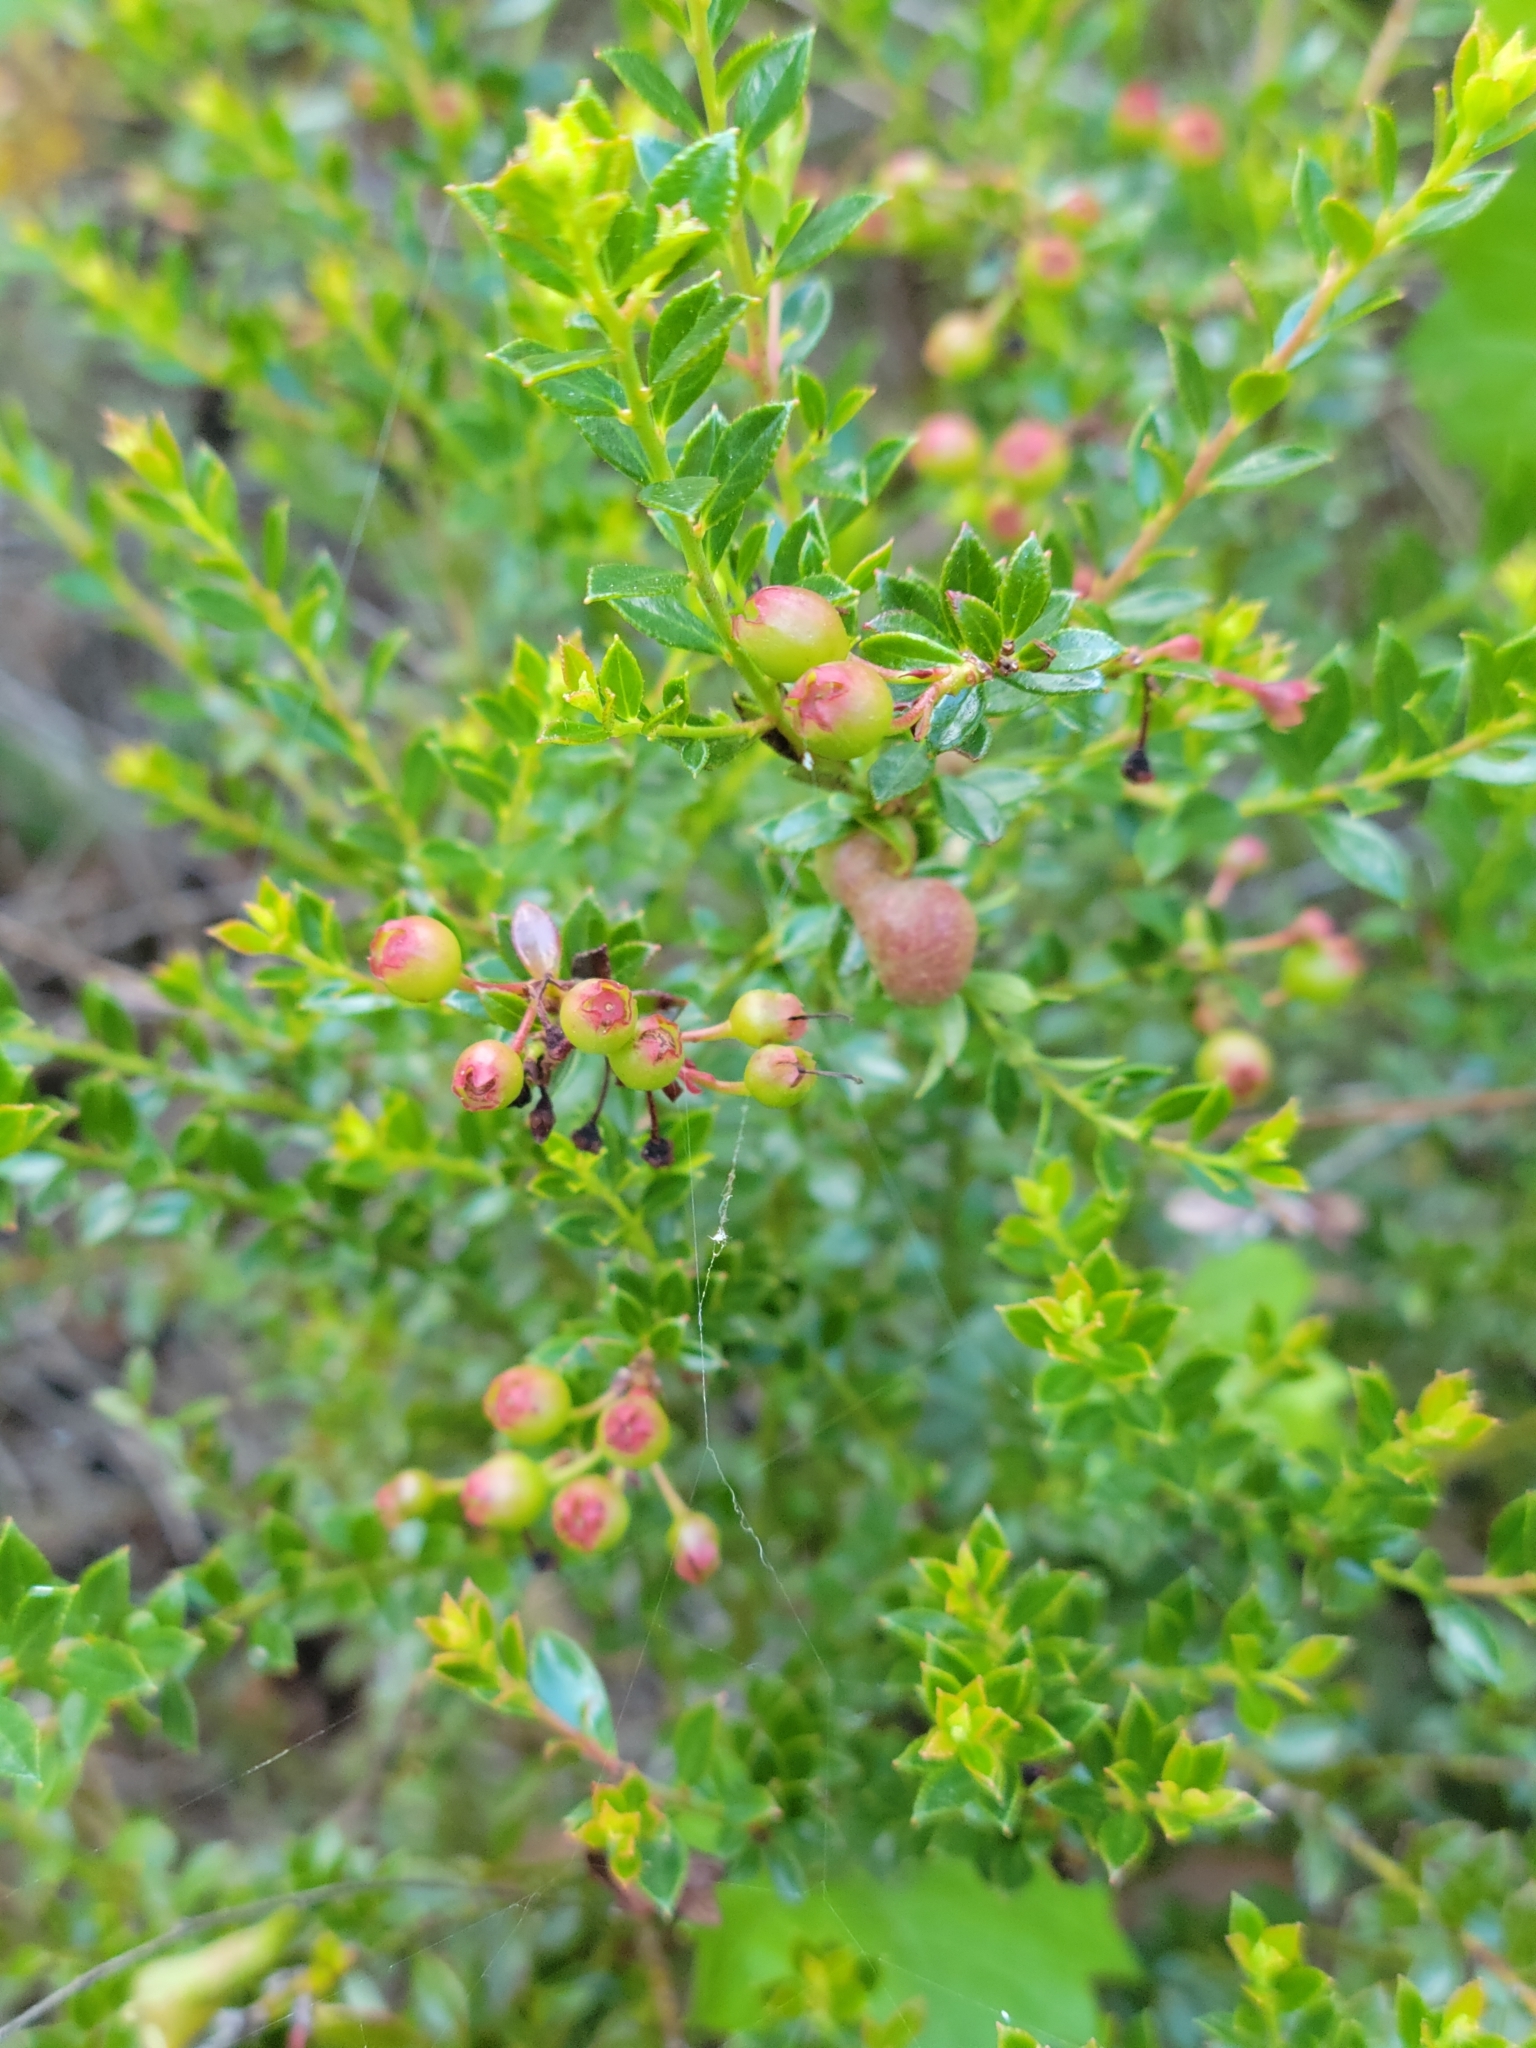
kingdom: Plantae
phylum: Tracheophyta
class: Magnoliopsida
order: Ericales
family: Ericaceae
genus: Vaccinium
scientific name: Vaccinium myrsinites
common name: Evergreen blueberry
